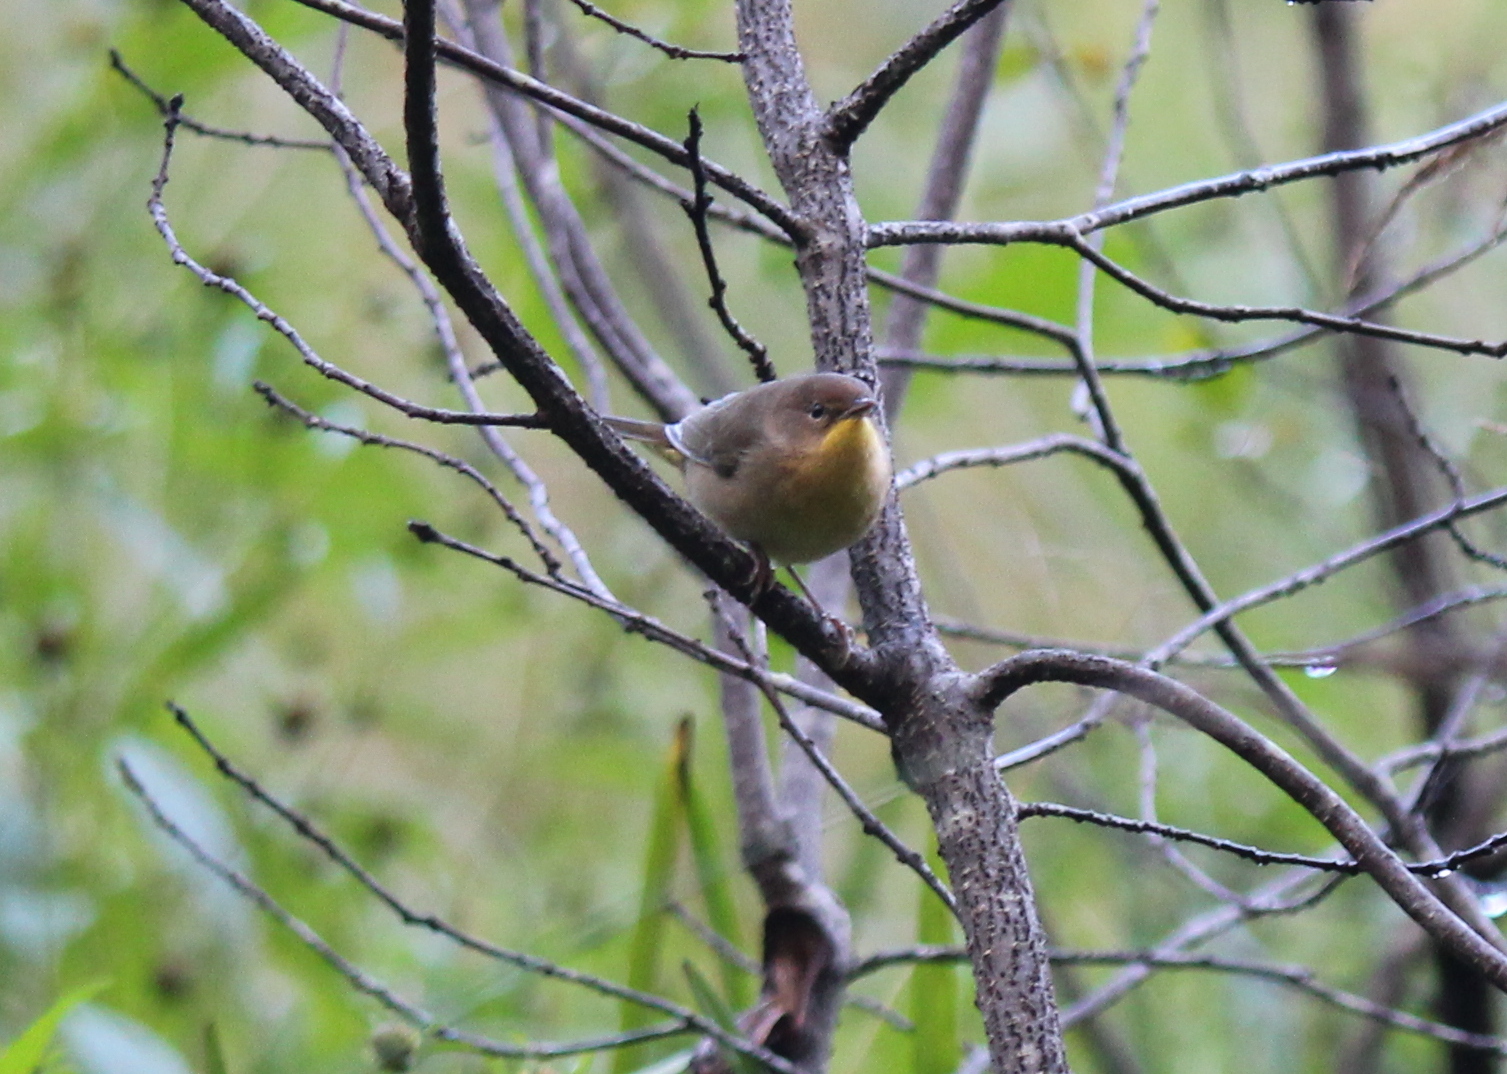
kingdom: Animalia
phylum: Chordata
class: Aves
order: Passeriformes
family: Parulidae
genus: Geothlypis
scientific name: Geothlypis trichas
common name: Common yellowthroat
